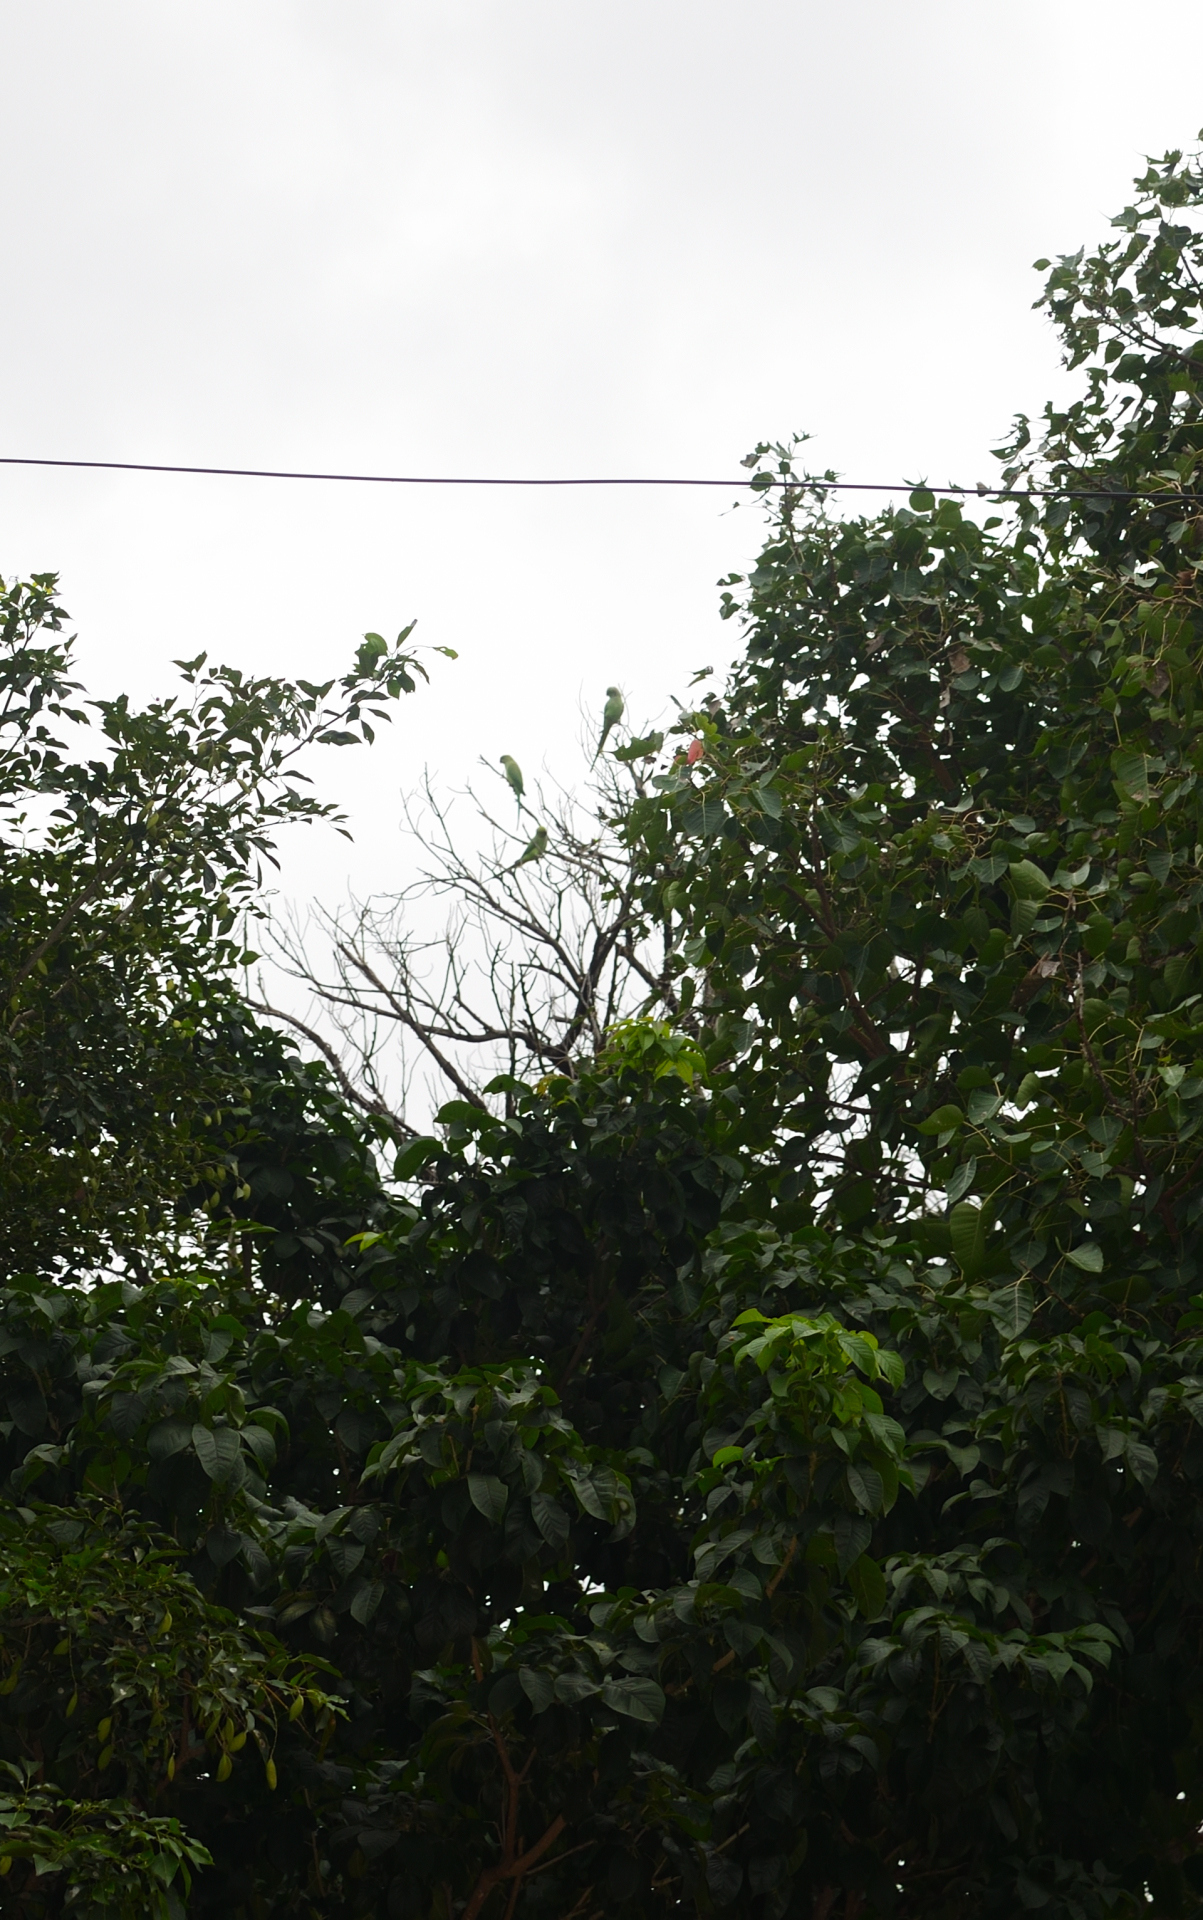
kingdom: Animalia
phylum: Chordata
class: Aves
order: Psittaciformes
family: Psittacidae
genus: Psittacula
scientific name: Psittacula krameri
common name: Rose-ringed parakeet
